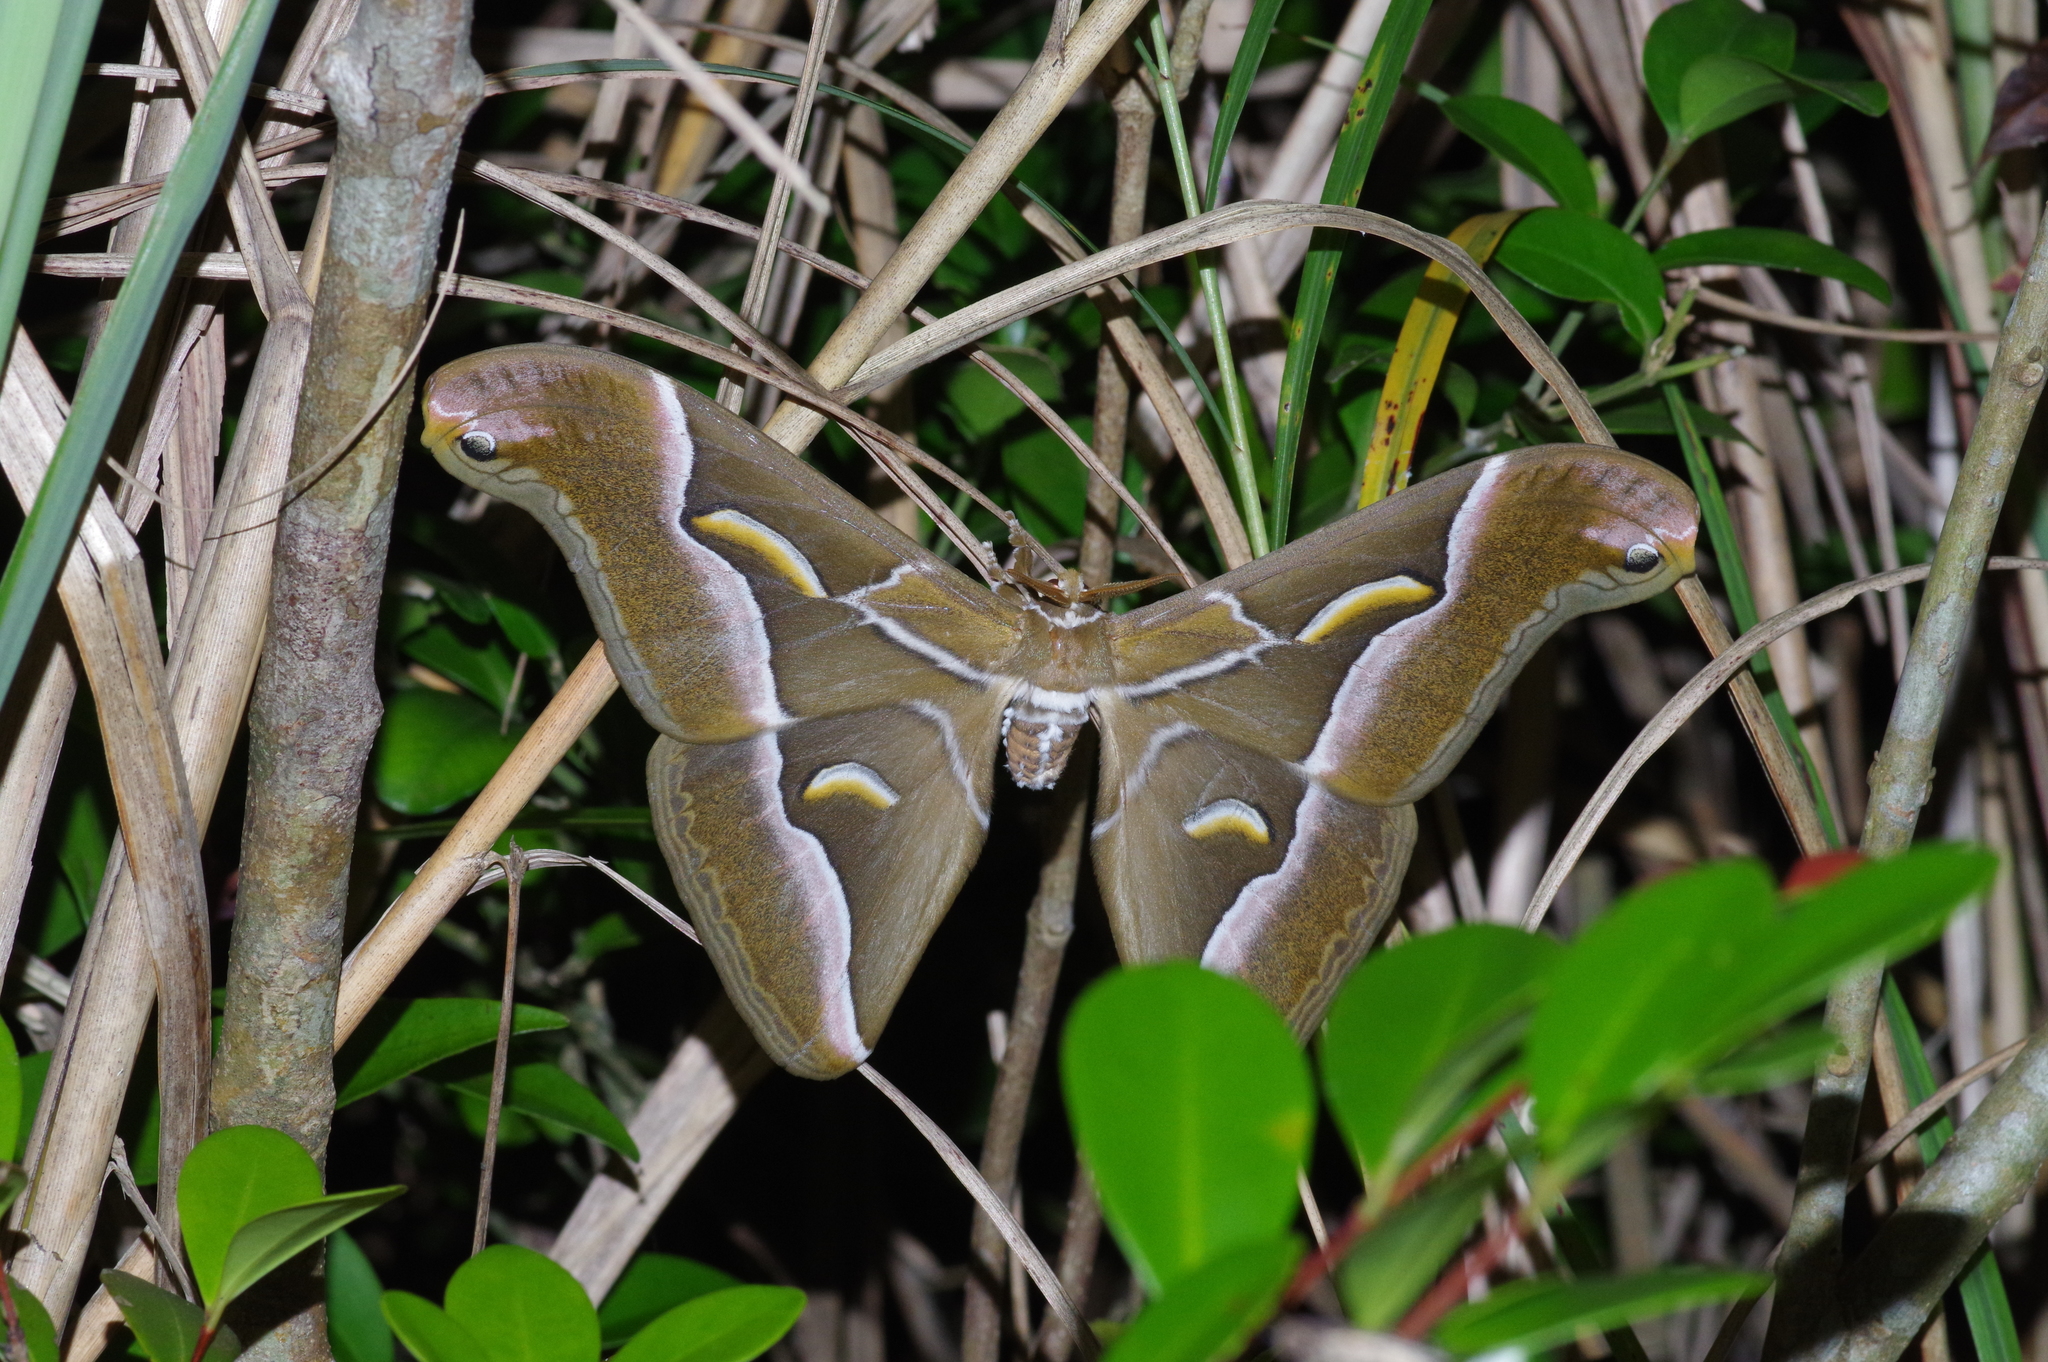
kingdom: Animalia
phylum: Arthropoda
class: Insecta
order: Lepidoptera
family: Saturniidae
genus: Samia
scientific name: Samia cynthia
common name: Ailanthus silkmoth
